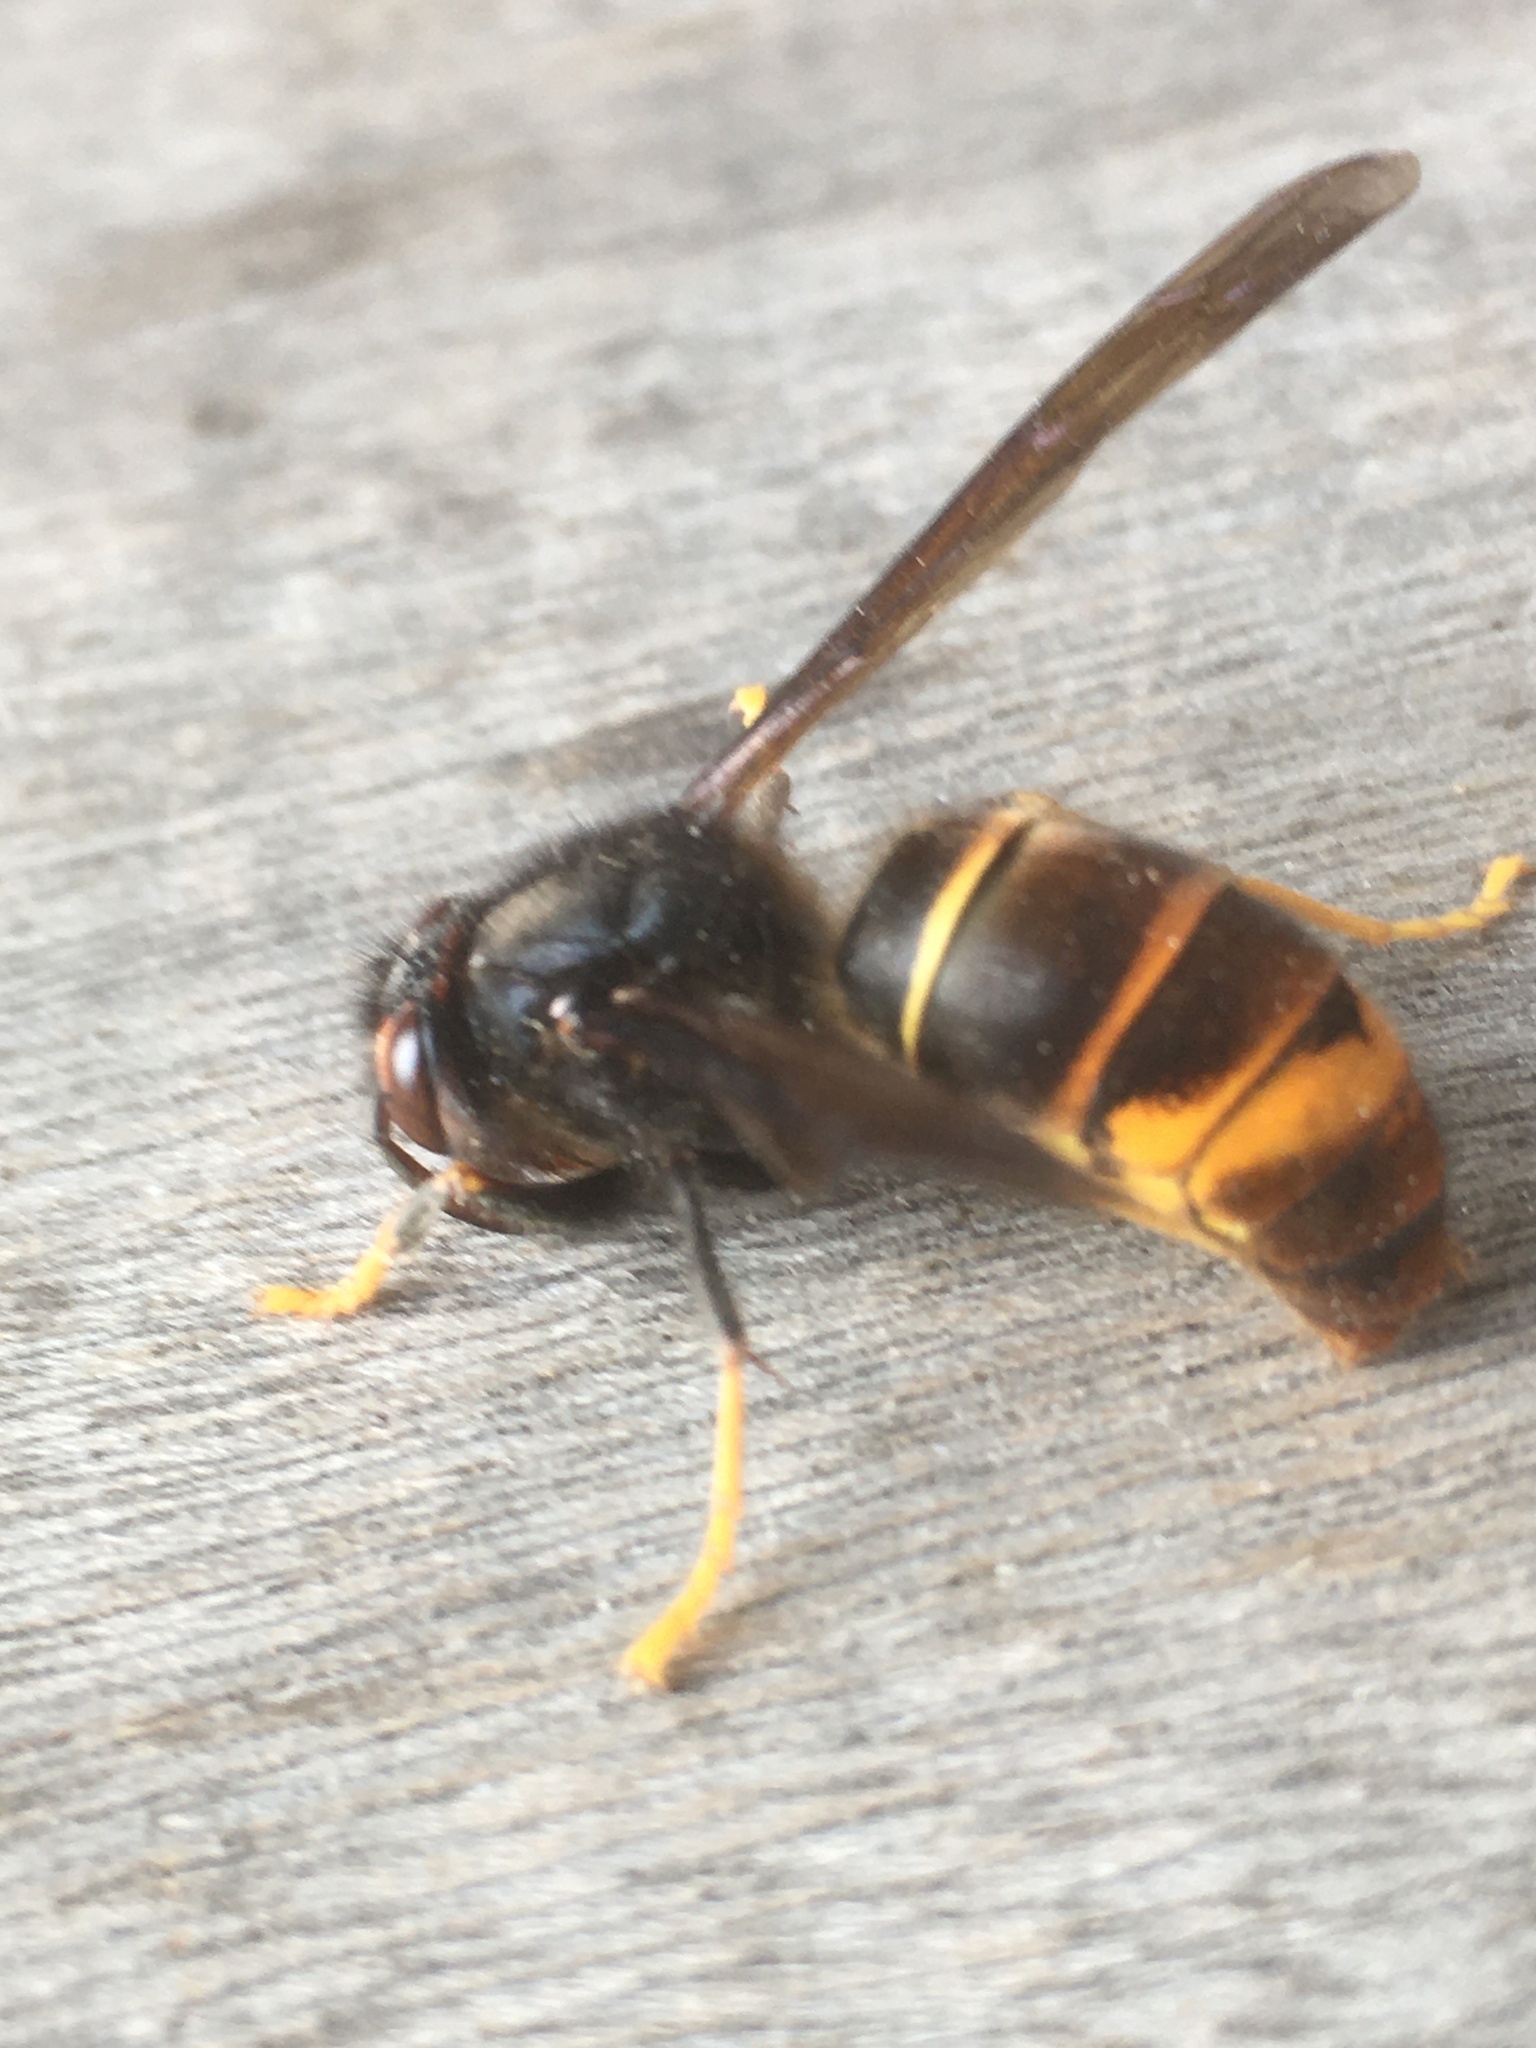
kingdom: Animalia
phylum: Arthropoda
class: Insecta
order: Hymenoptera
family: Vespidae
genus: Vespa
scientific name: Vespa velutina
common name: Asian hornet
